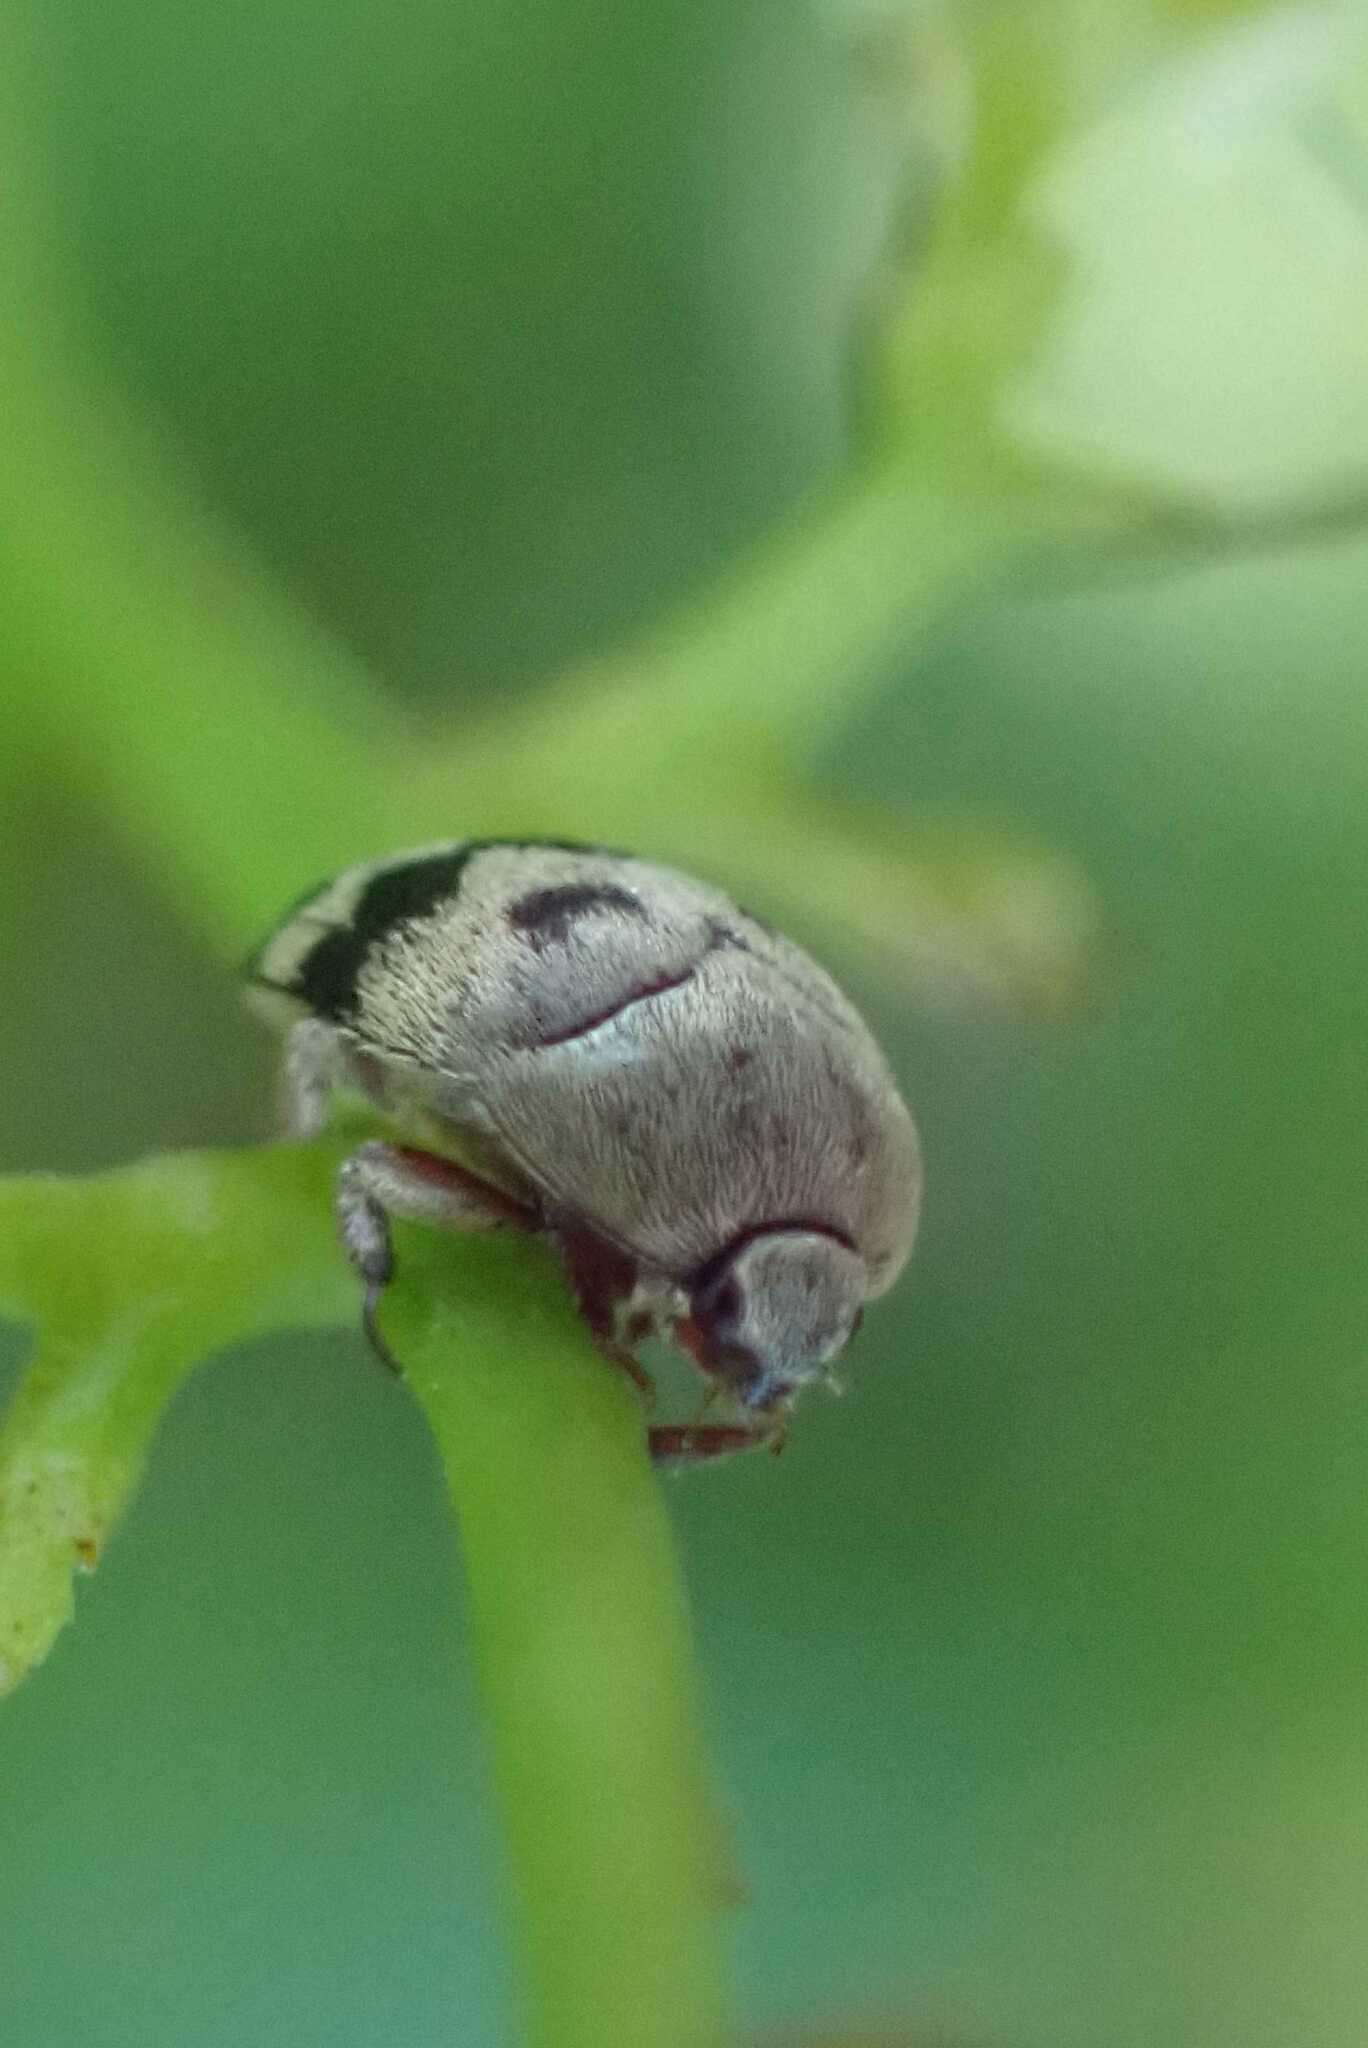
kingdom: Animalia
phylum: Arthropoda
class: Insecta
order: Coleoptera
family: Dermestidae
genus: Attagenus
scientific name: Attagenus
